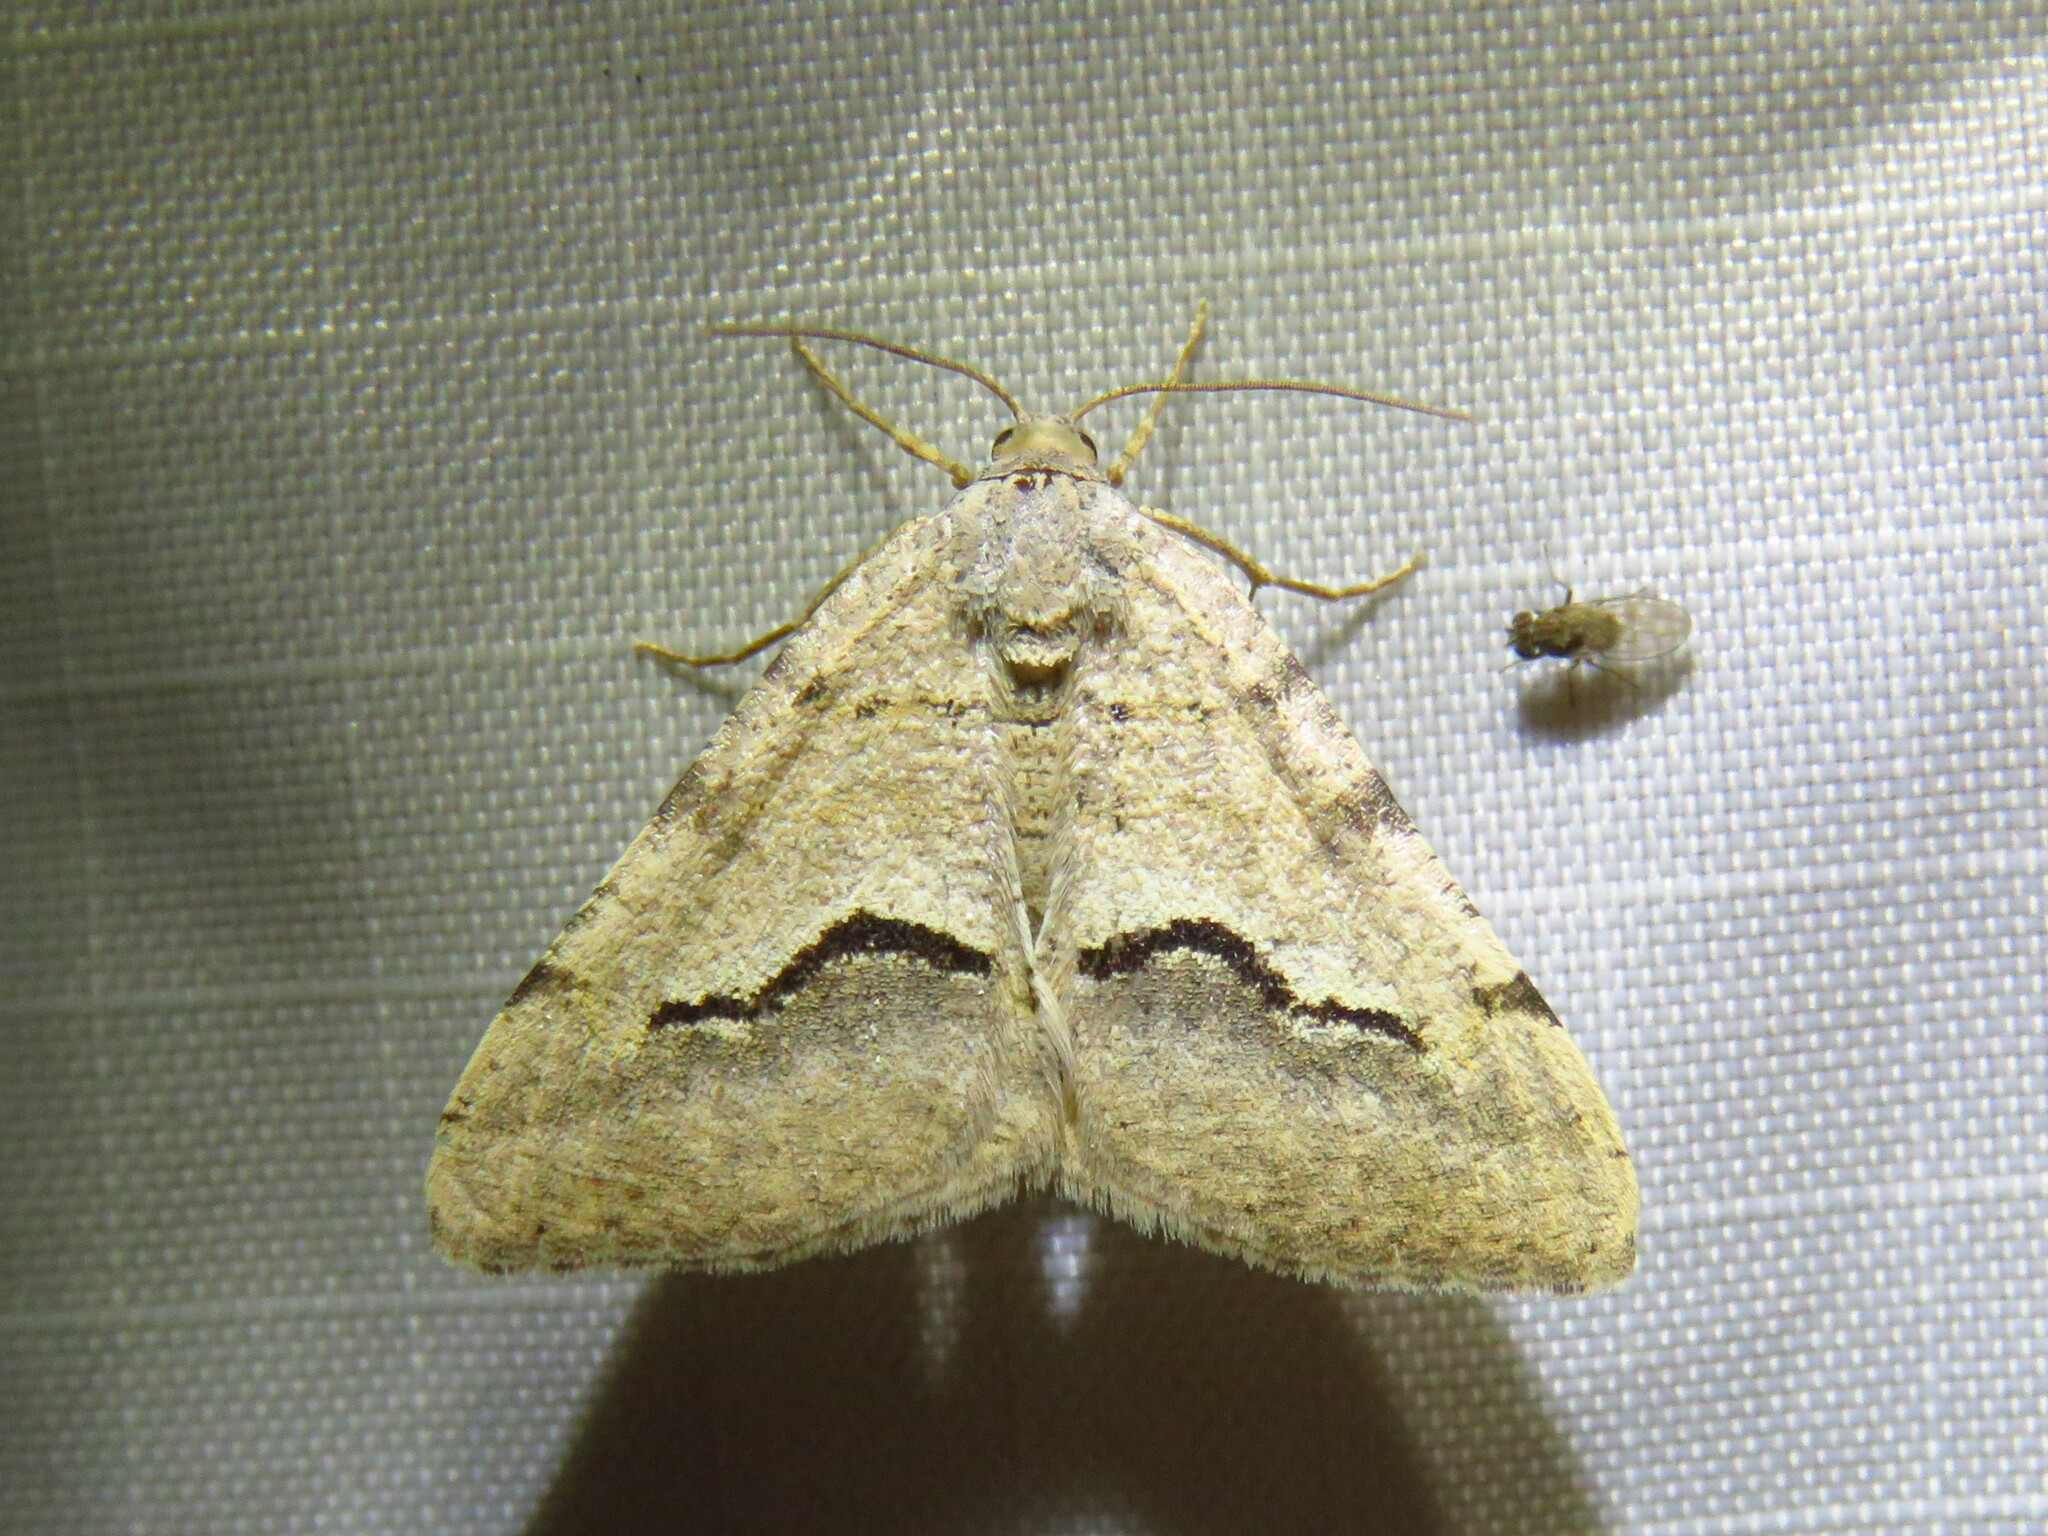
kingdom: Animalia
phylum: Arthropoda
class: Insecta
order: Lepidoptera
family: Geometridae
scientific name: Geometridae
